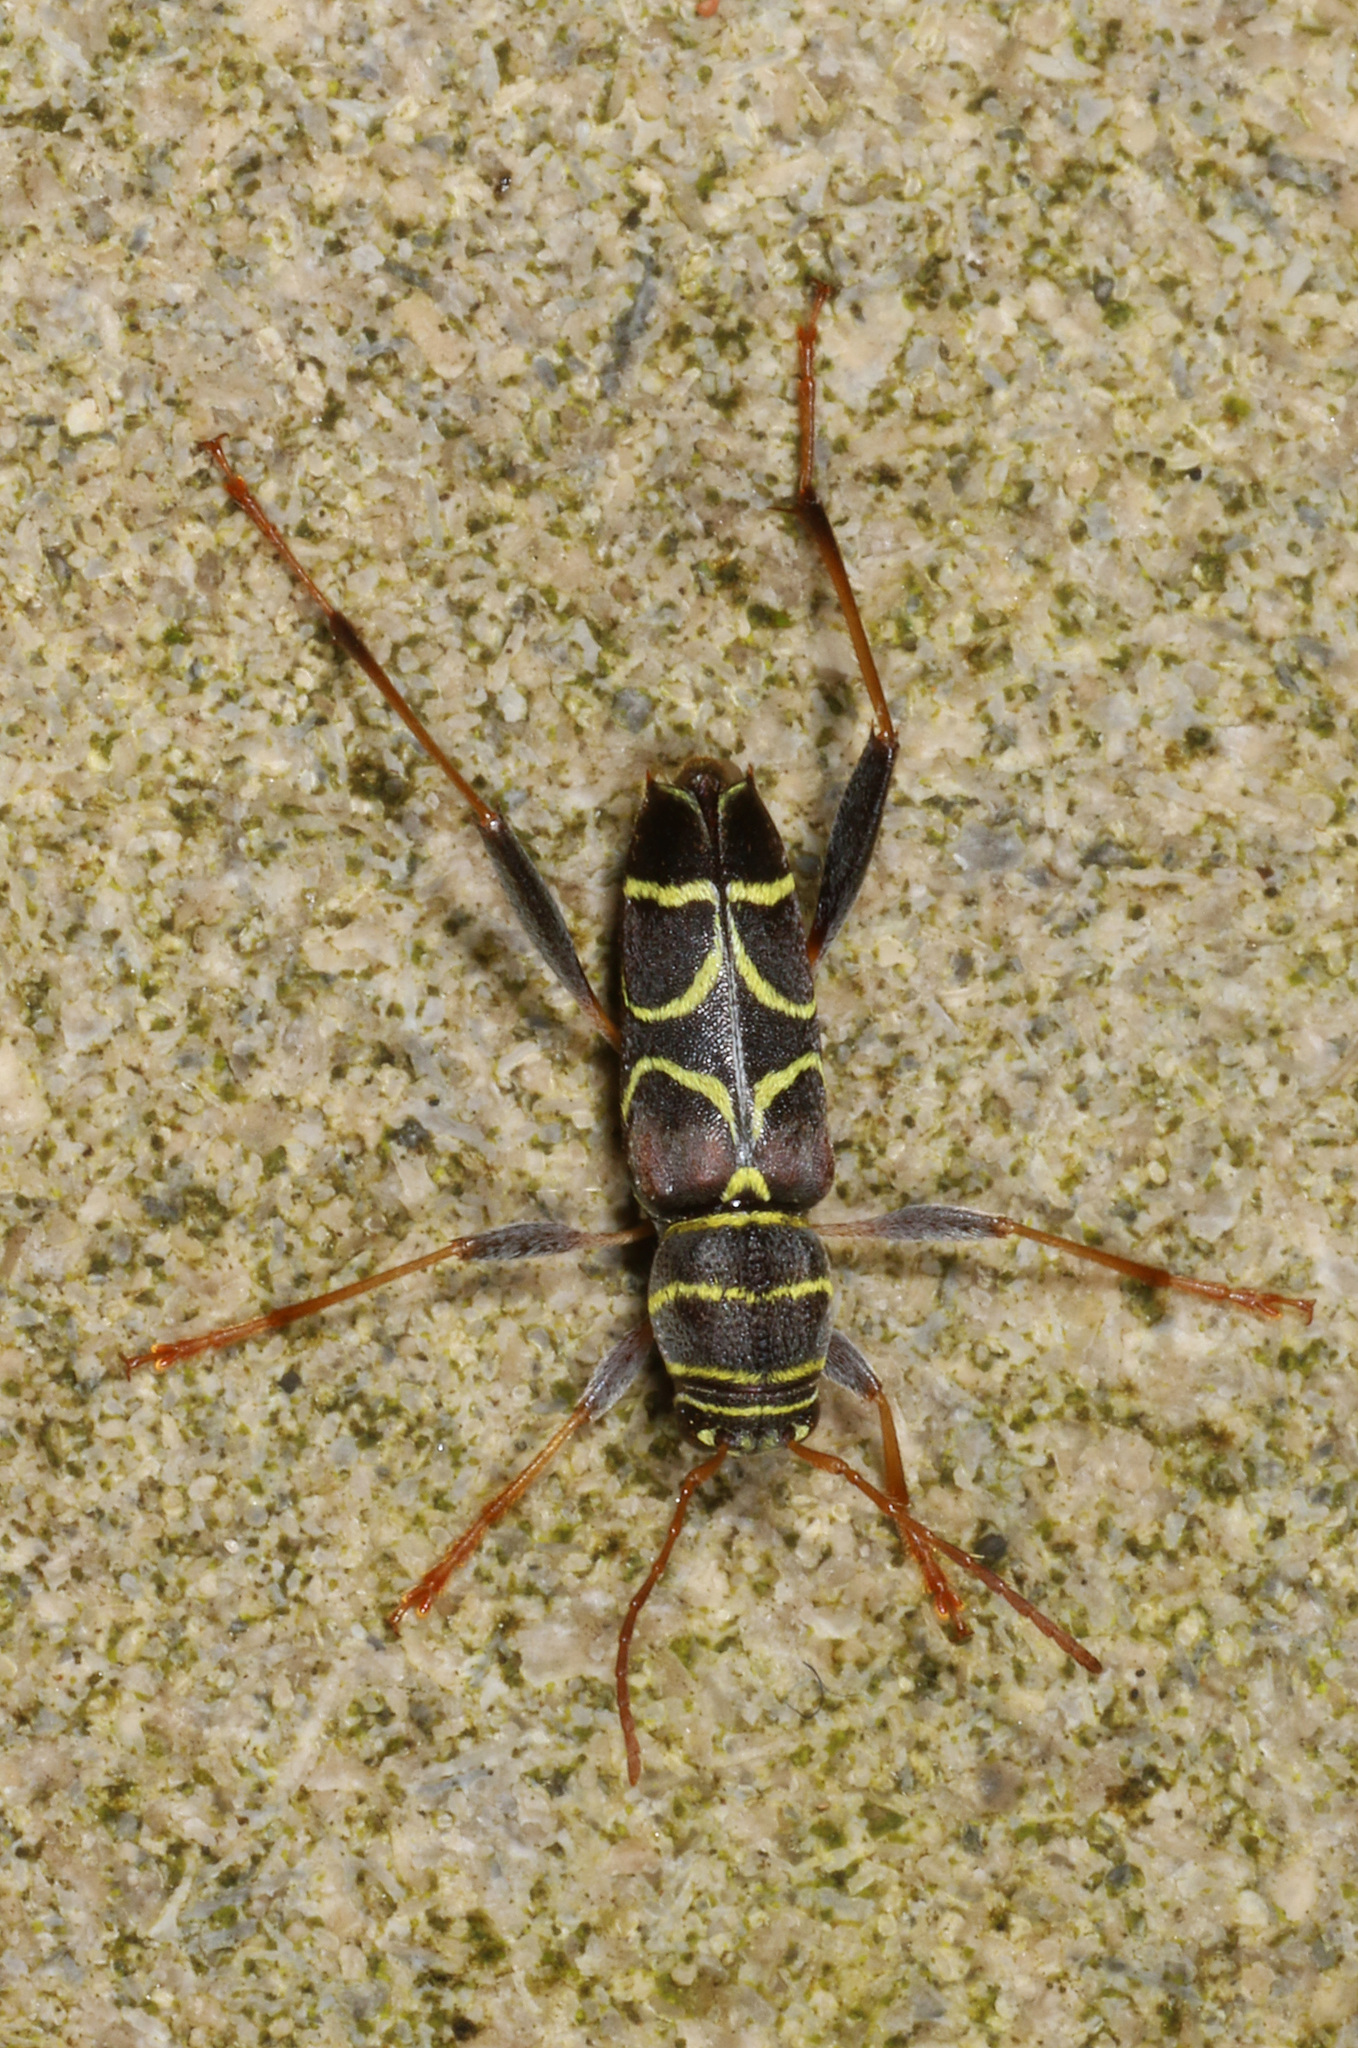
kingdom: Animalia
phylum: Arthropoda
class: Insecta
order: Coleoptera
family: Cerambycidae
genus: Neoclytus
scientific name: Neoclytus scutellaris
